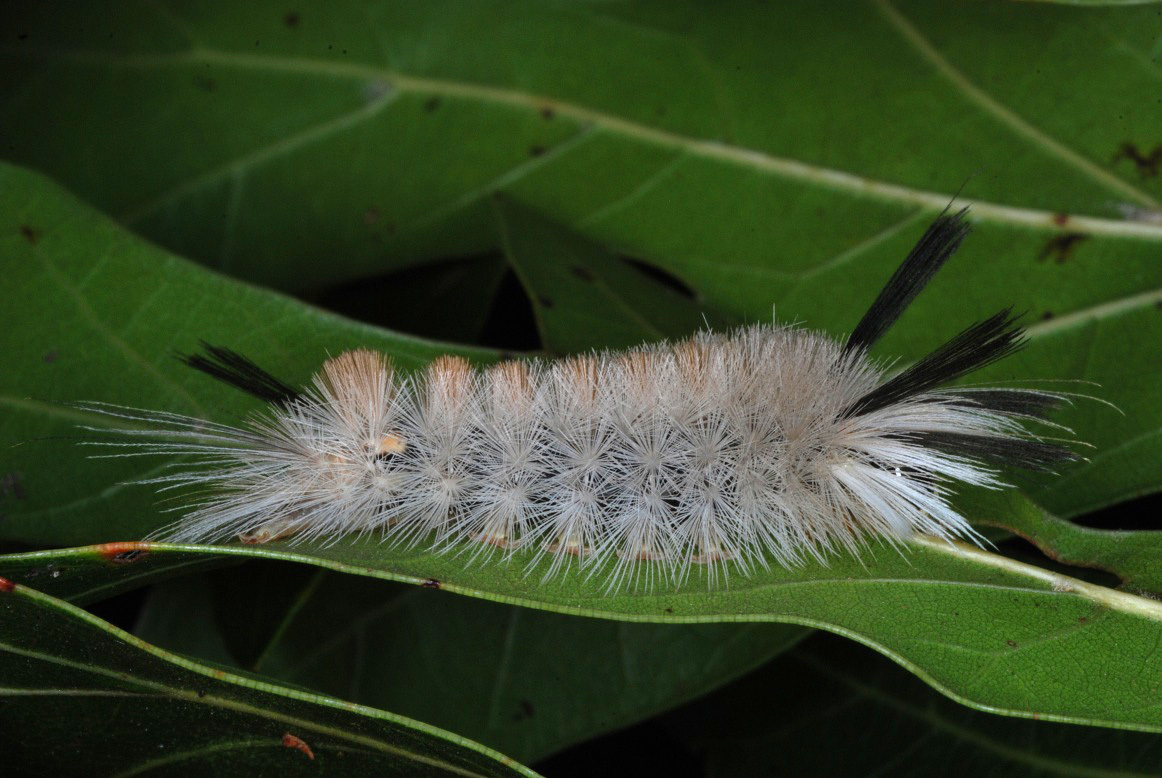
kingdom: Animalia
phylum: Arthropoda
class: Insecta
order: Lepidoptera
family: Erebidae
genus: Halysidota
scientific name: Halysidota tessellaris
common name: Banded tussock moth
